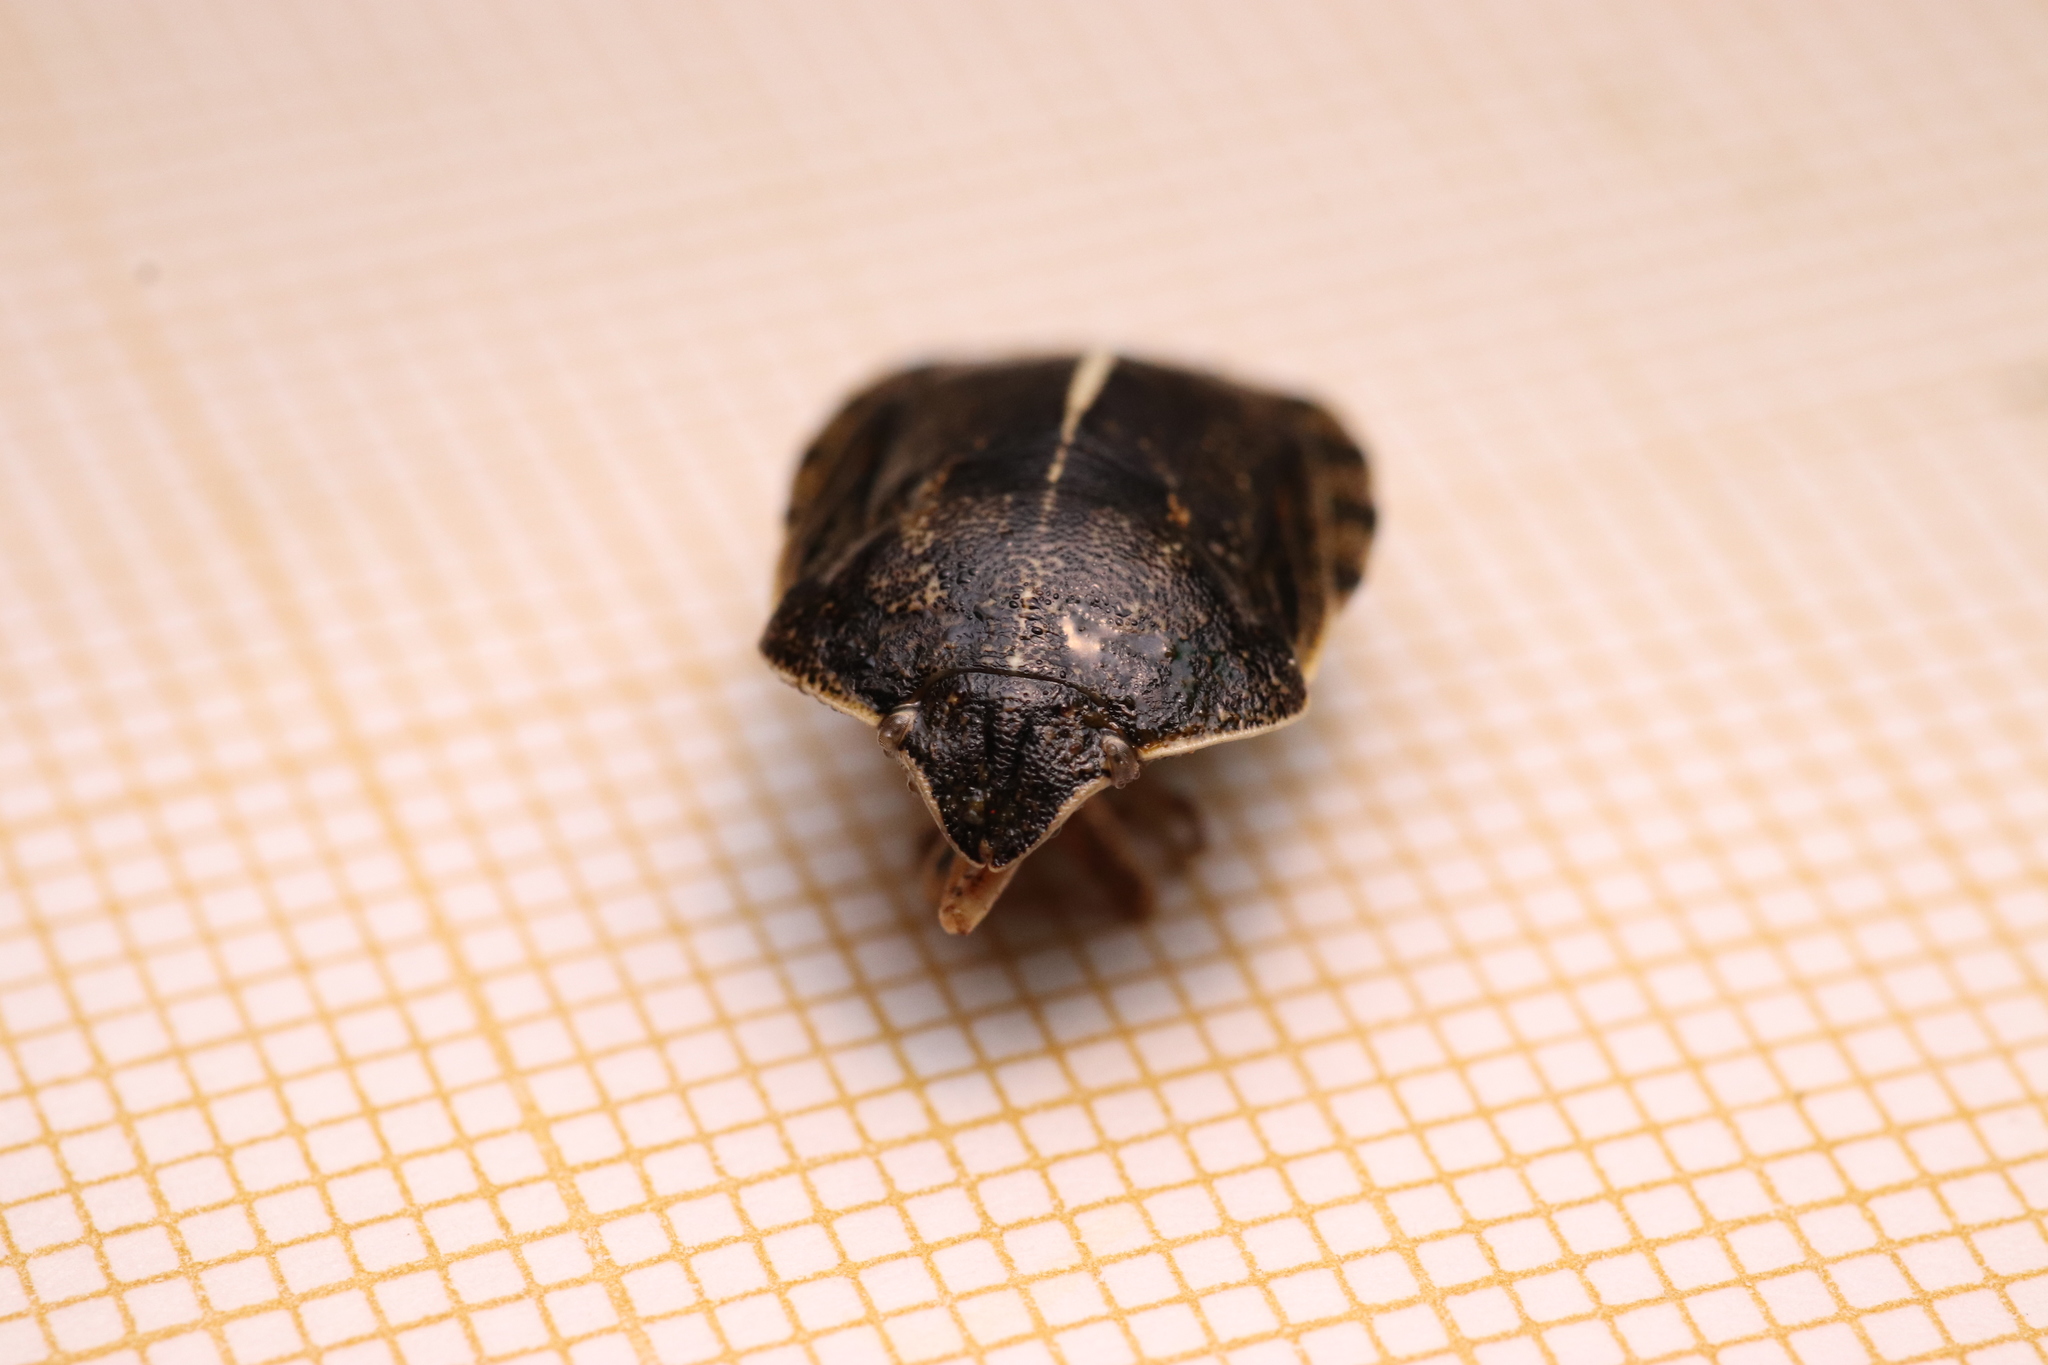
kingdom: Animalia
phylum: Arthropoda
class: Insecta
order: Hemiptera
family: Scutelleridae
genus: Eurygaster
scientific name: Eurygaster austriaca
